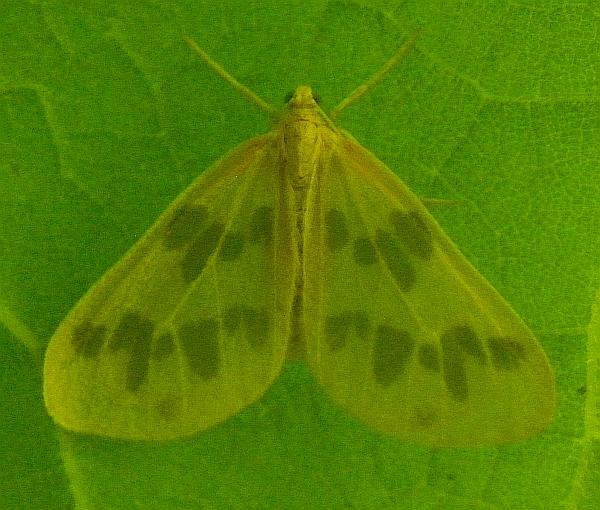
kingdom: Animalia
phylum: Arthropoda
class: Insecta
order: Lepidoptera
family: Geometridae
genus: Eubaphe
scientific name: Eubaphe mendica
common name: Beggar
